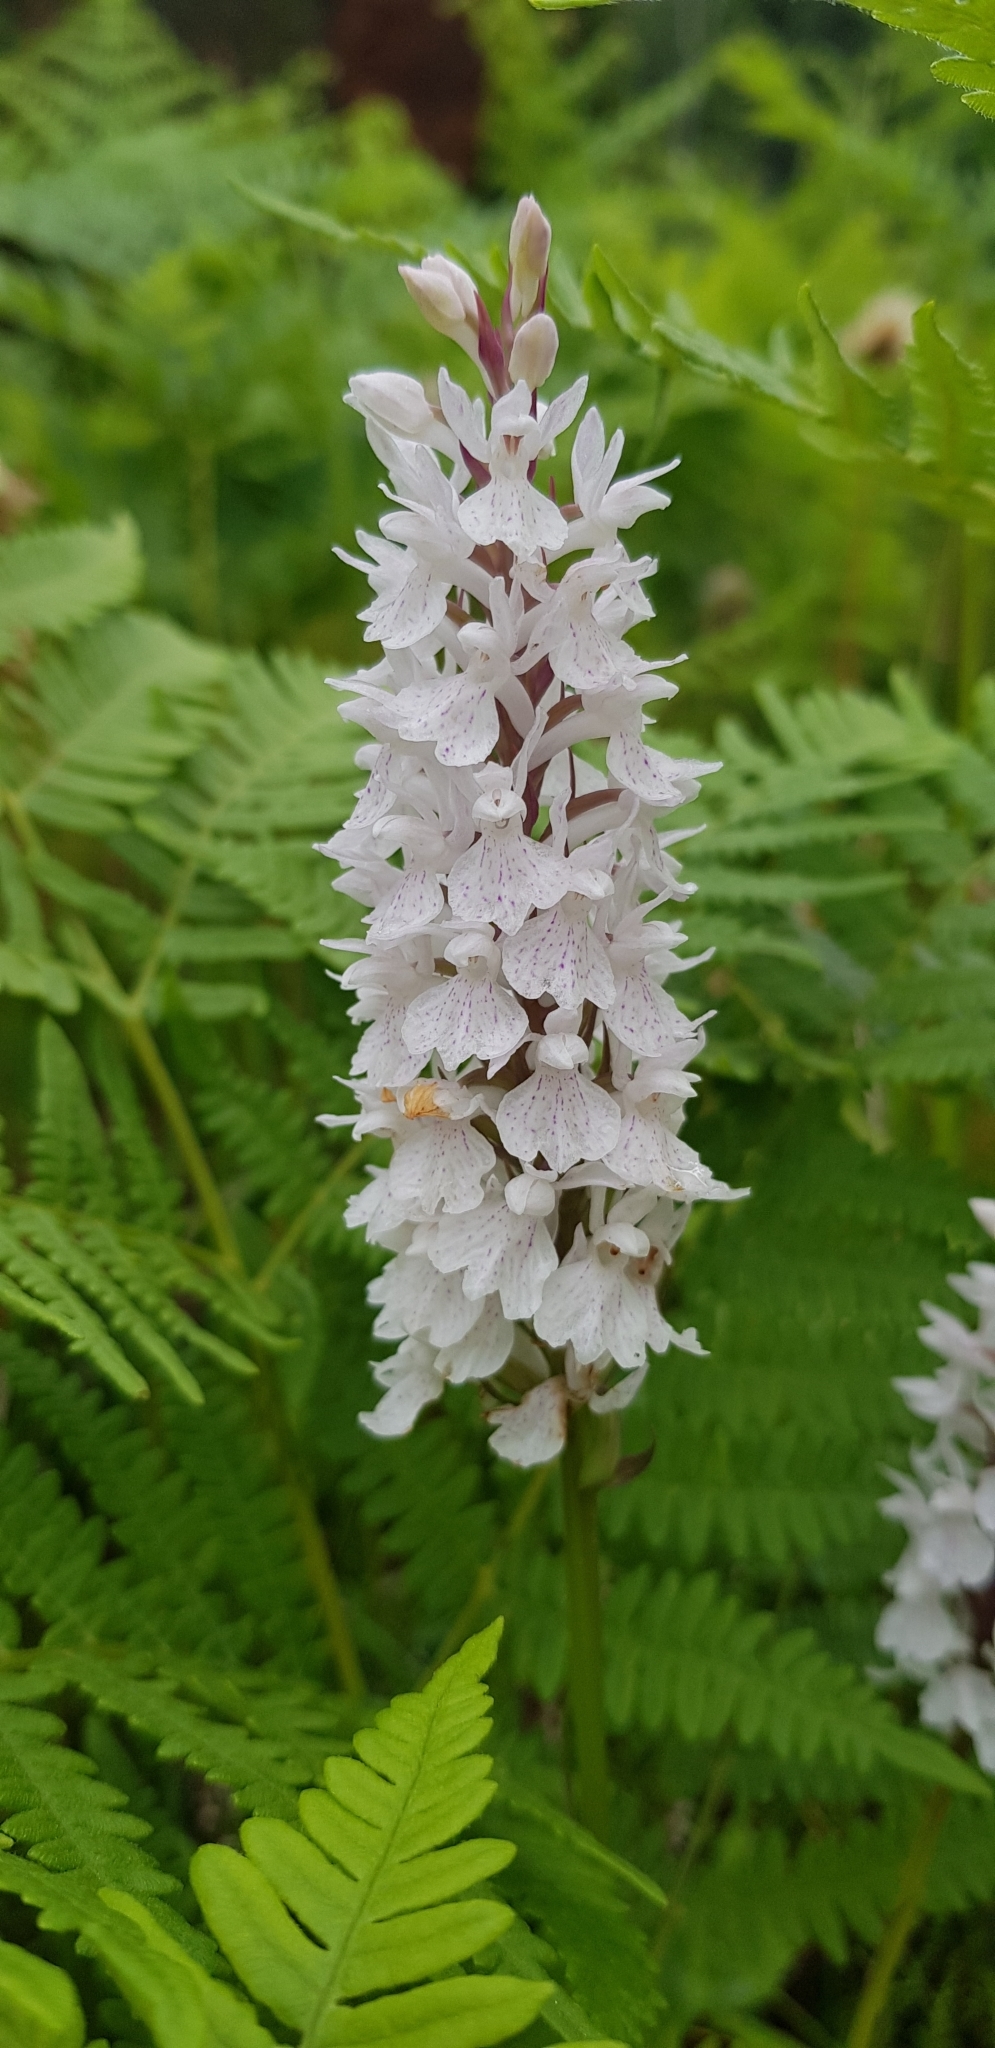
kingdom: Plantae
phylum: Tracheophyta
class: Liliopsida
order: Asparagales
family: Orchidaceae
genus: Dactylorhiza
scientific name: Dactylorhiza maculata
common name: Heath spotted-orchid
